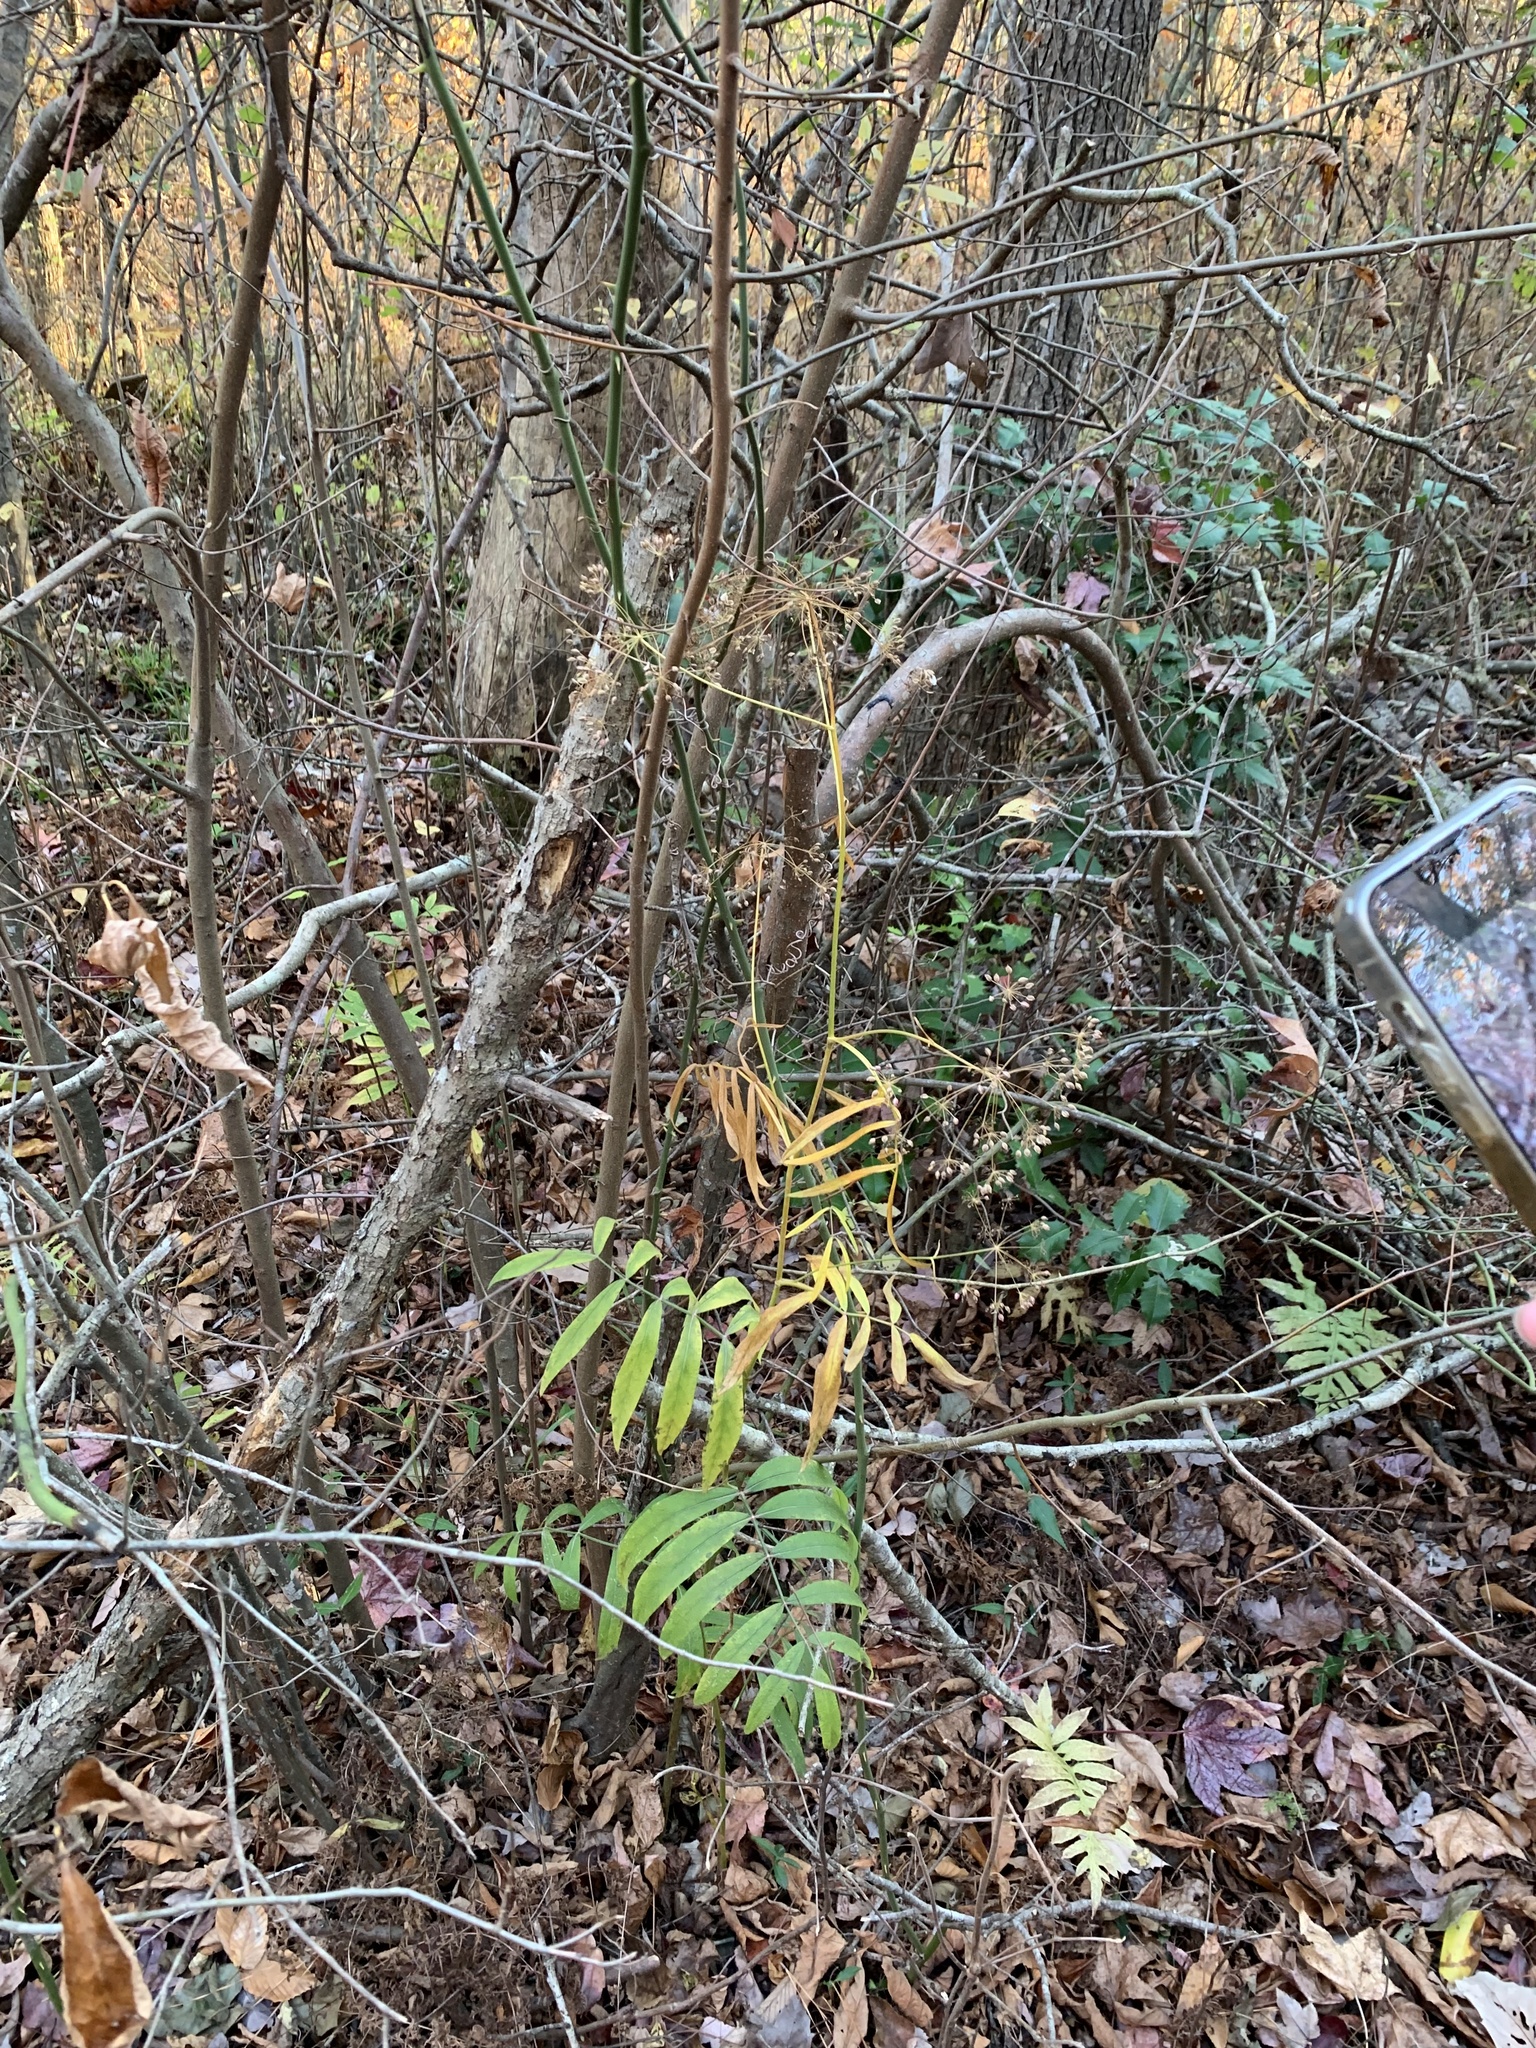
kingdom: Plantae
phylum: Tracheophyta
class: Magnoliopsida
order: Apiales
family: Apiaceae
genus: Oxypolis
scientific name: Oxypolis rigidior
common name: Cowbane
